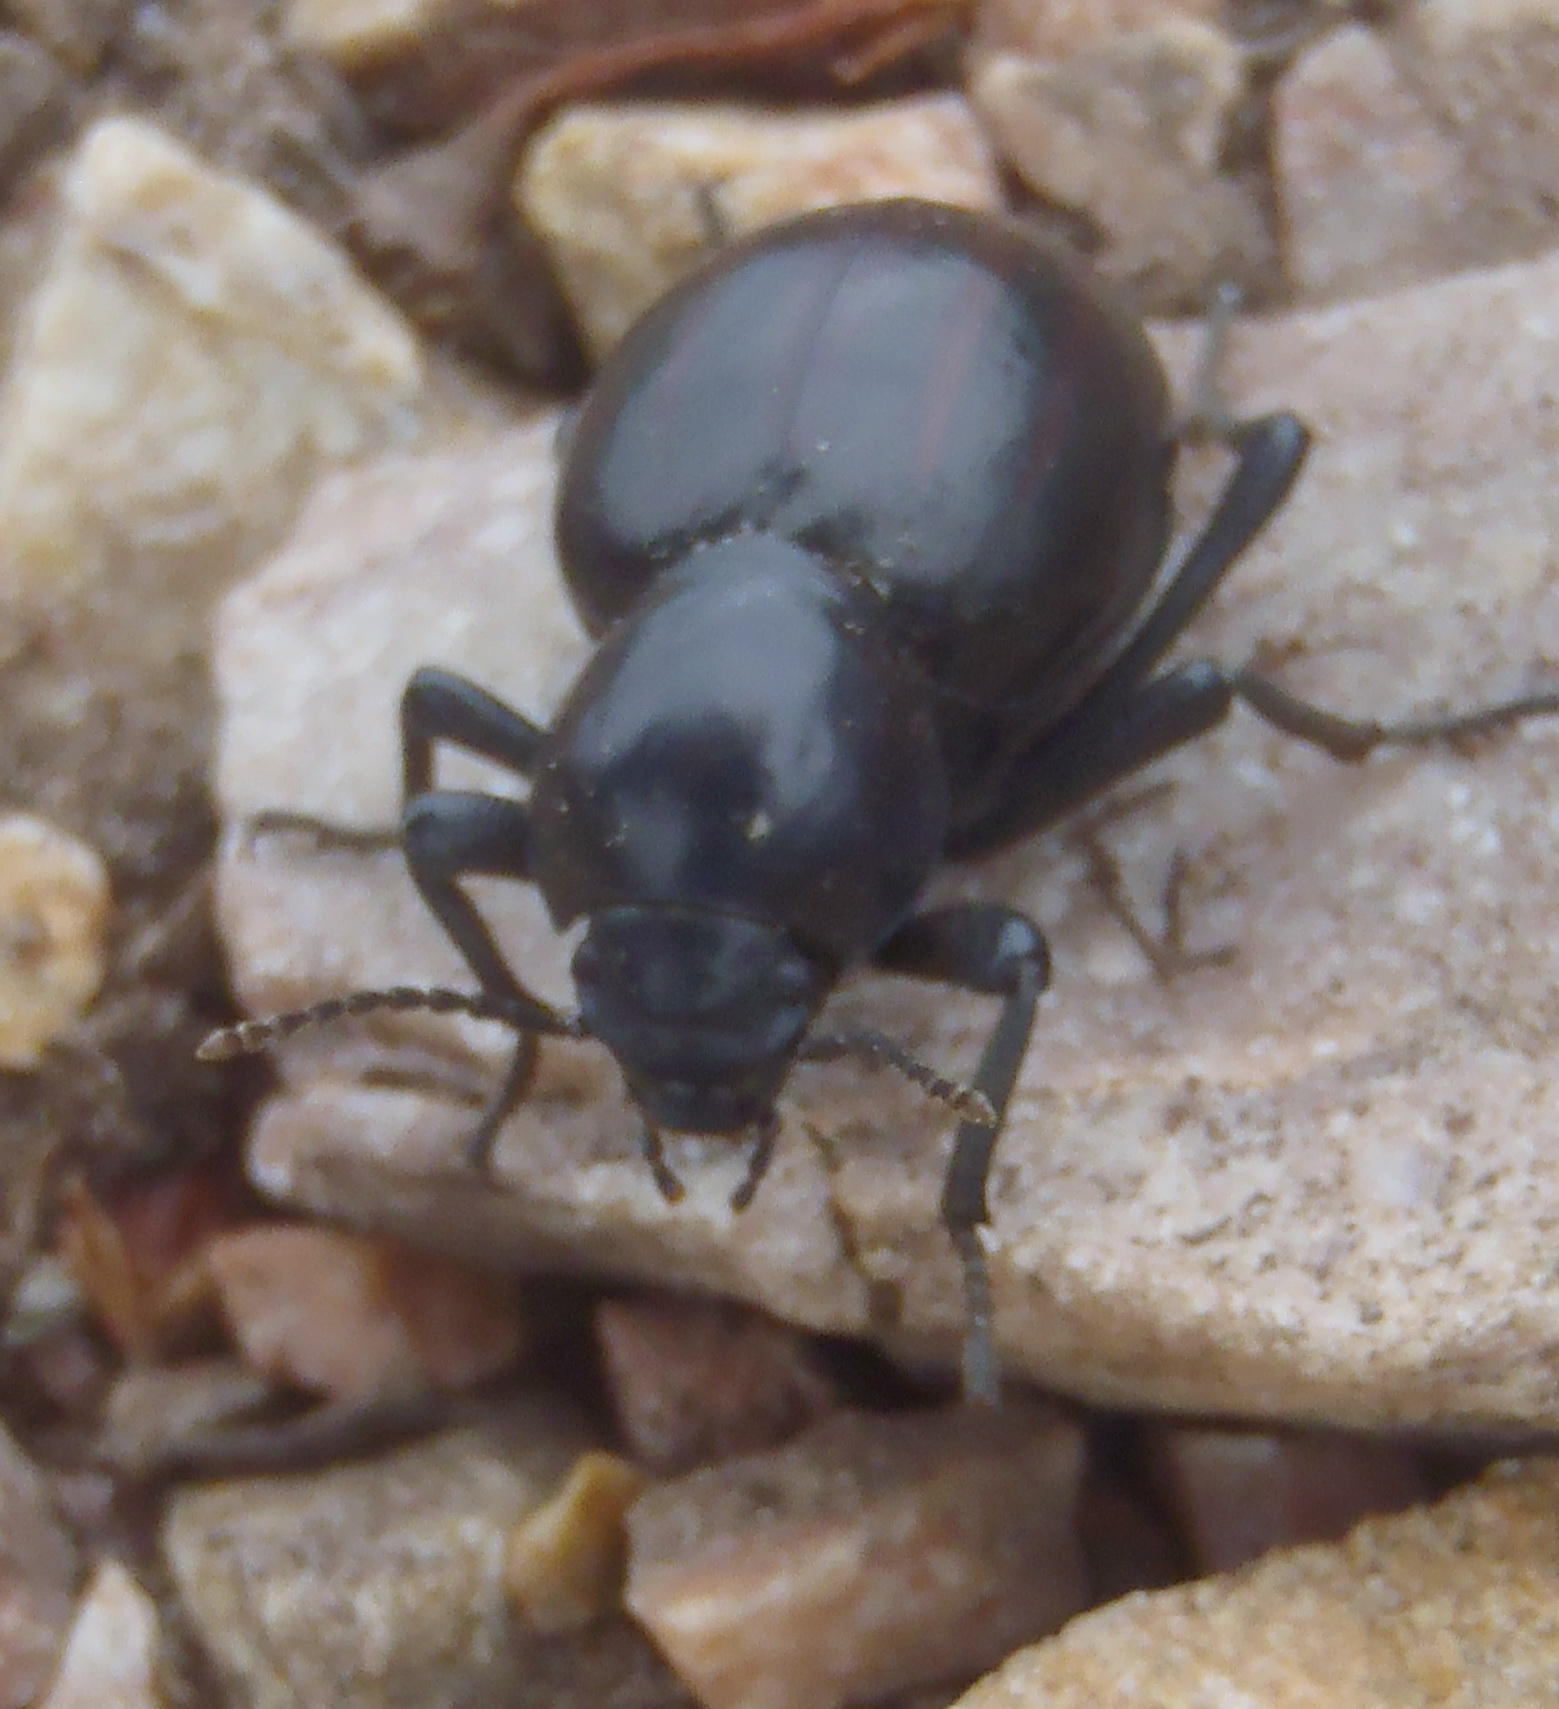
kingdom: Animalia
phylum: Arthropoda
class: Insecta
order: Coleoptera
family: Tenebrionidae
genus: Mariazofia
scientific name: Mariazofia
